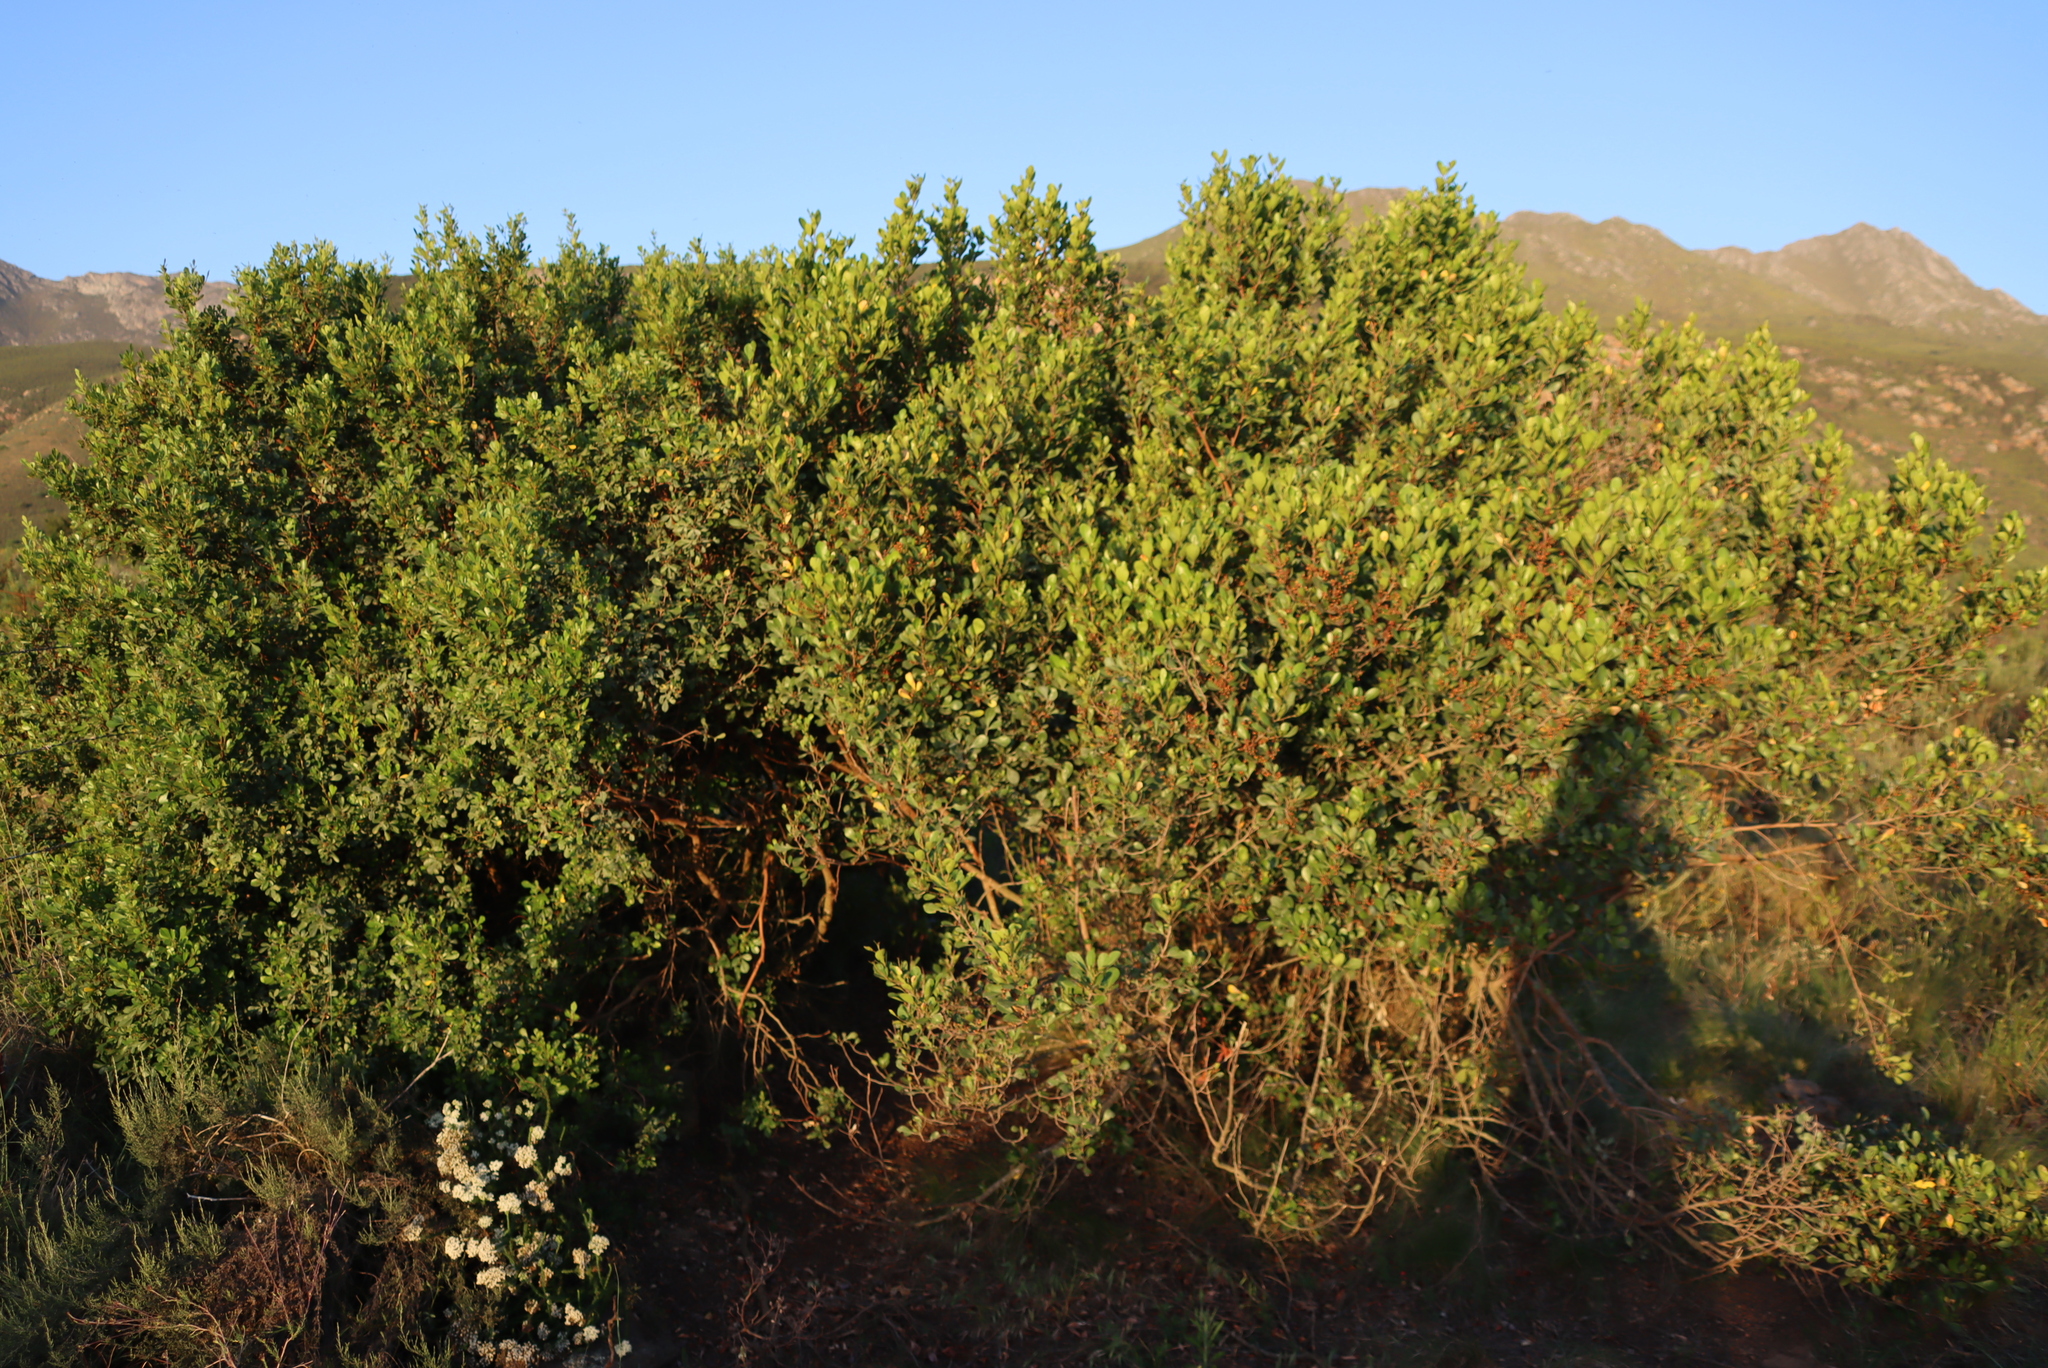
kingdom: Plantae
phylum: Tracheophyta
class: Magnoliopsida
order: Sapindales
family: Anacardiaceae
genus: Searsia
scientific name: Searsia pallens
